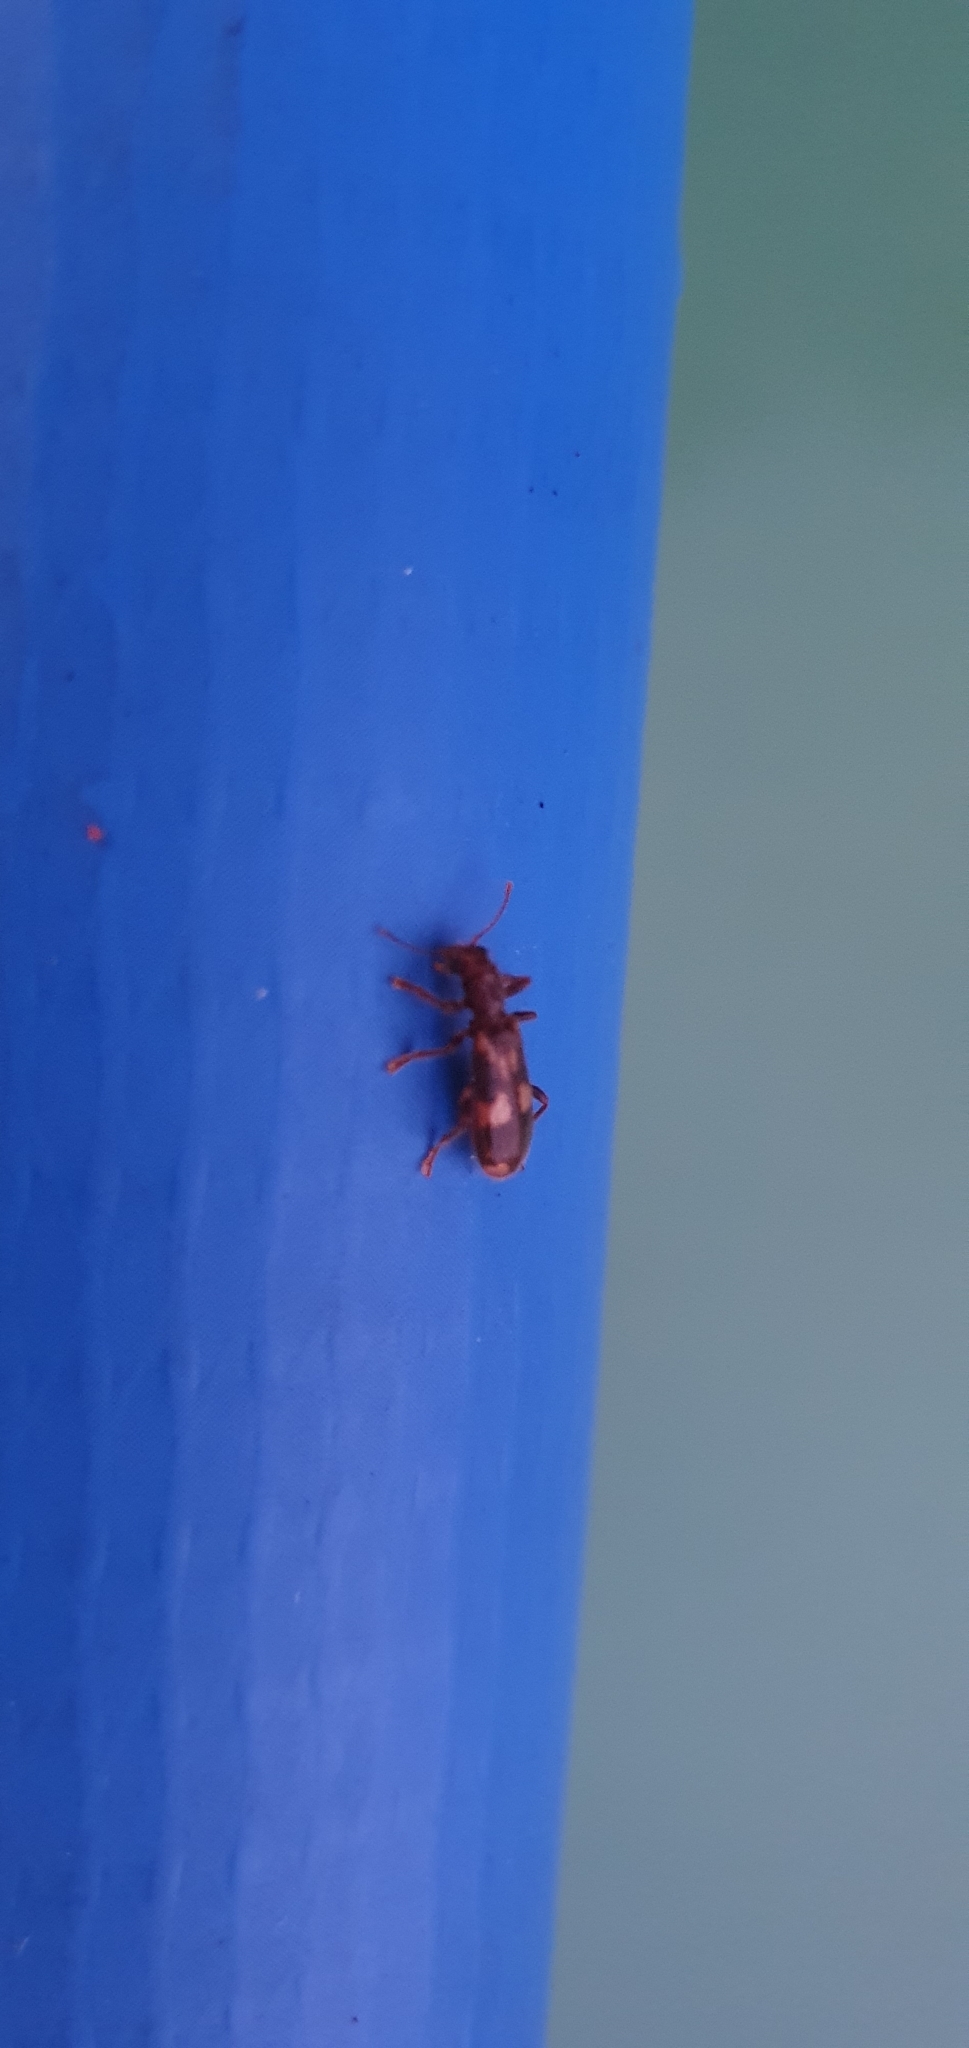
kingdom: Animalia
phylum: Arthropoda
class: Insecta
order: Coleoptera
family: Cleridae
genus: Opilo
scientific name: Opilo mollis
